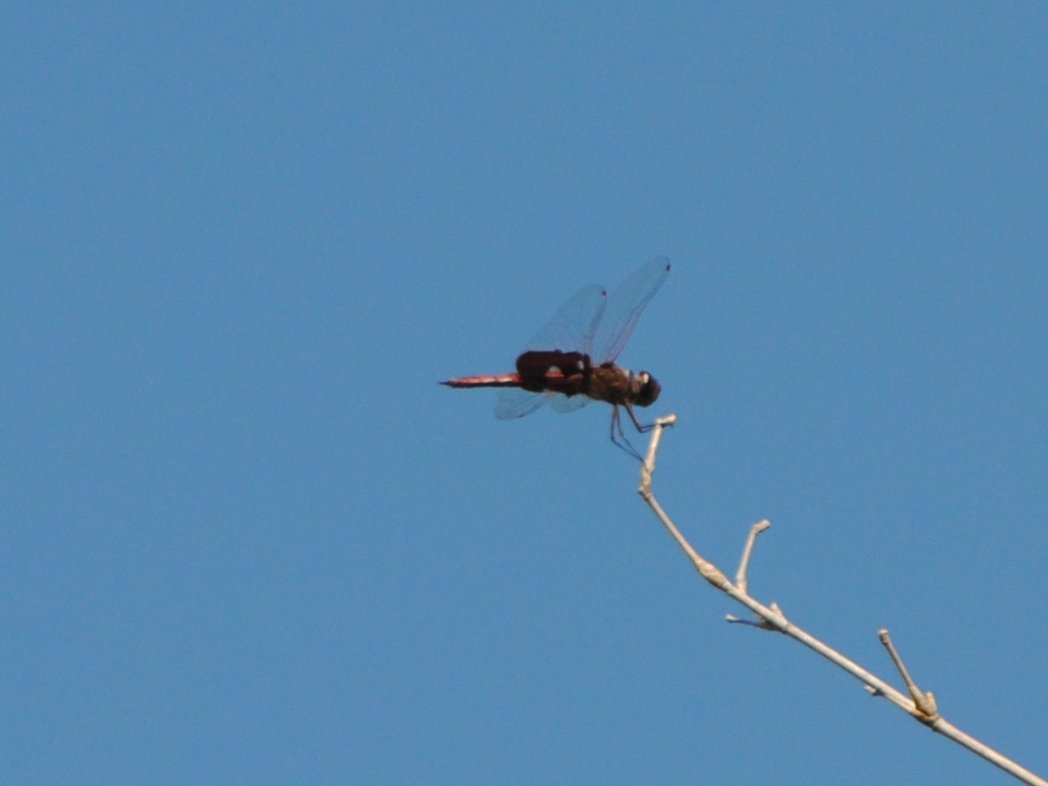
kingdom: Animalia
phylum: Arthropoda
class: Insecta
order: Odonata
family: Libellulidae
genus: Tramea
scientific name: Tramea onusta
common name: Red saddlebags
